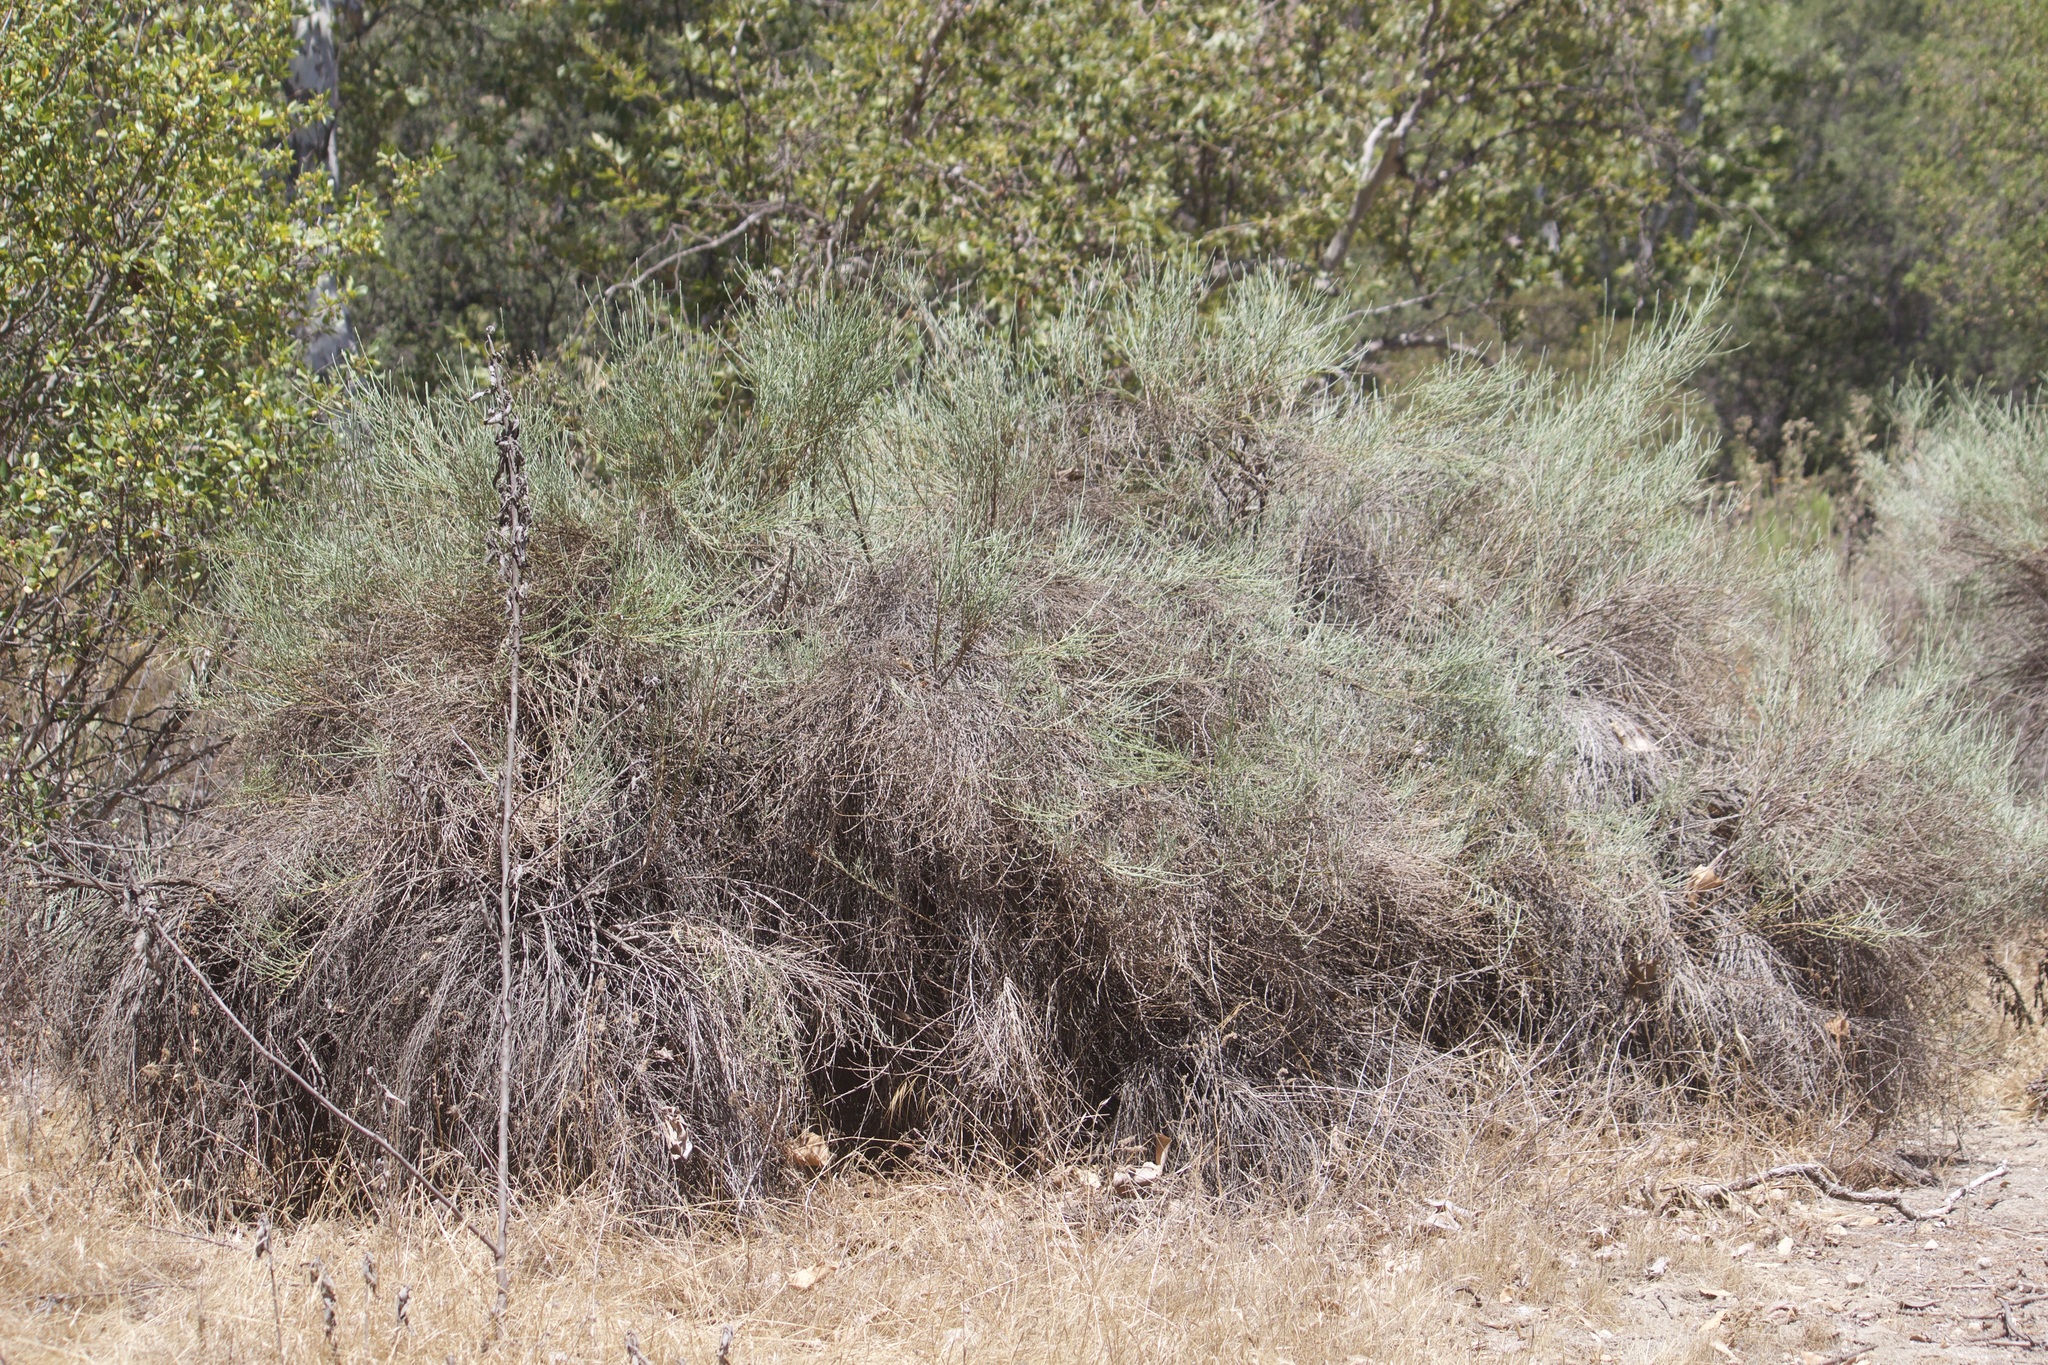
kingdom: Plantae
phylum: Tracheophyta
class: Magnoliopsida
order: Asterales
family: Asteraceae
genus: Lepidospartum
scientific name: Lepidospartum squamatum
